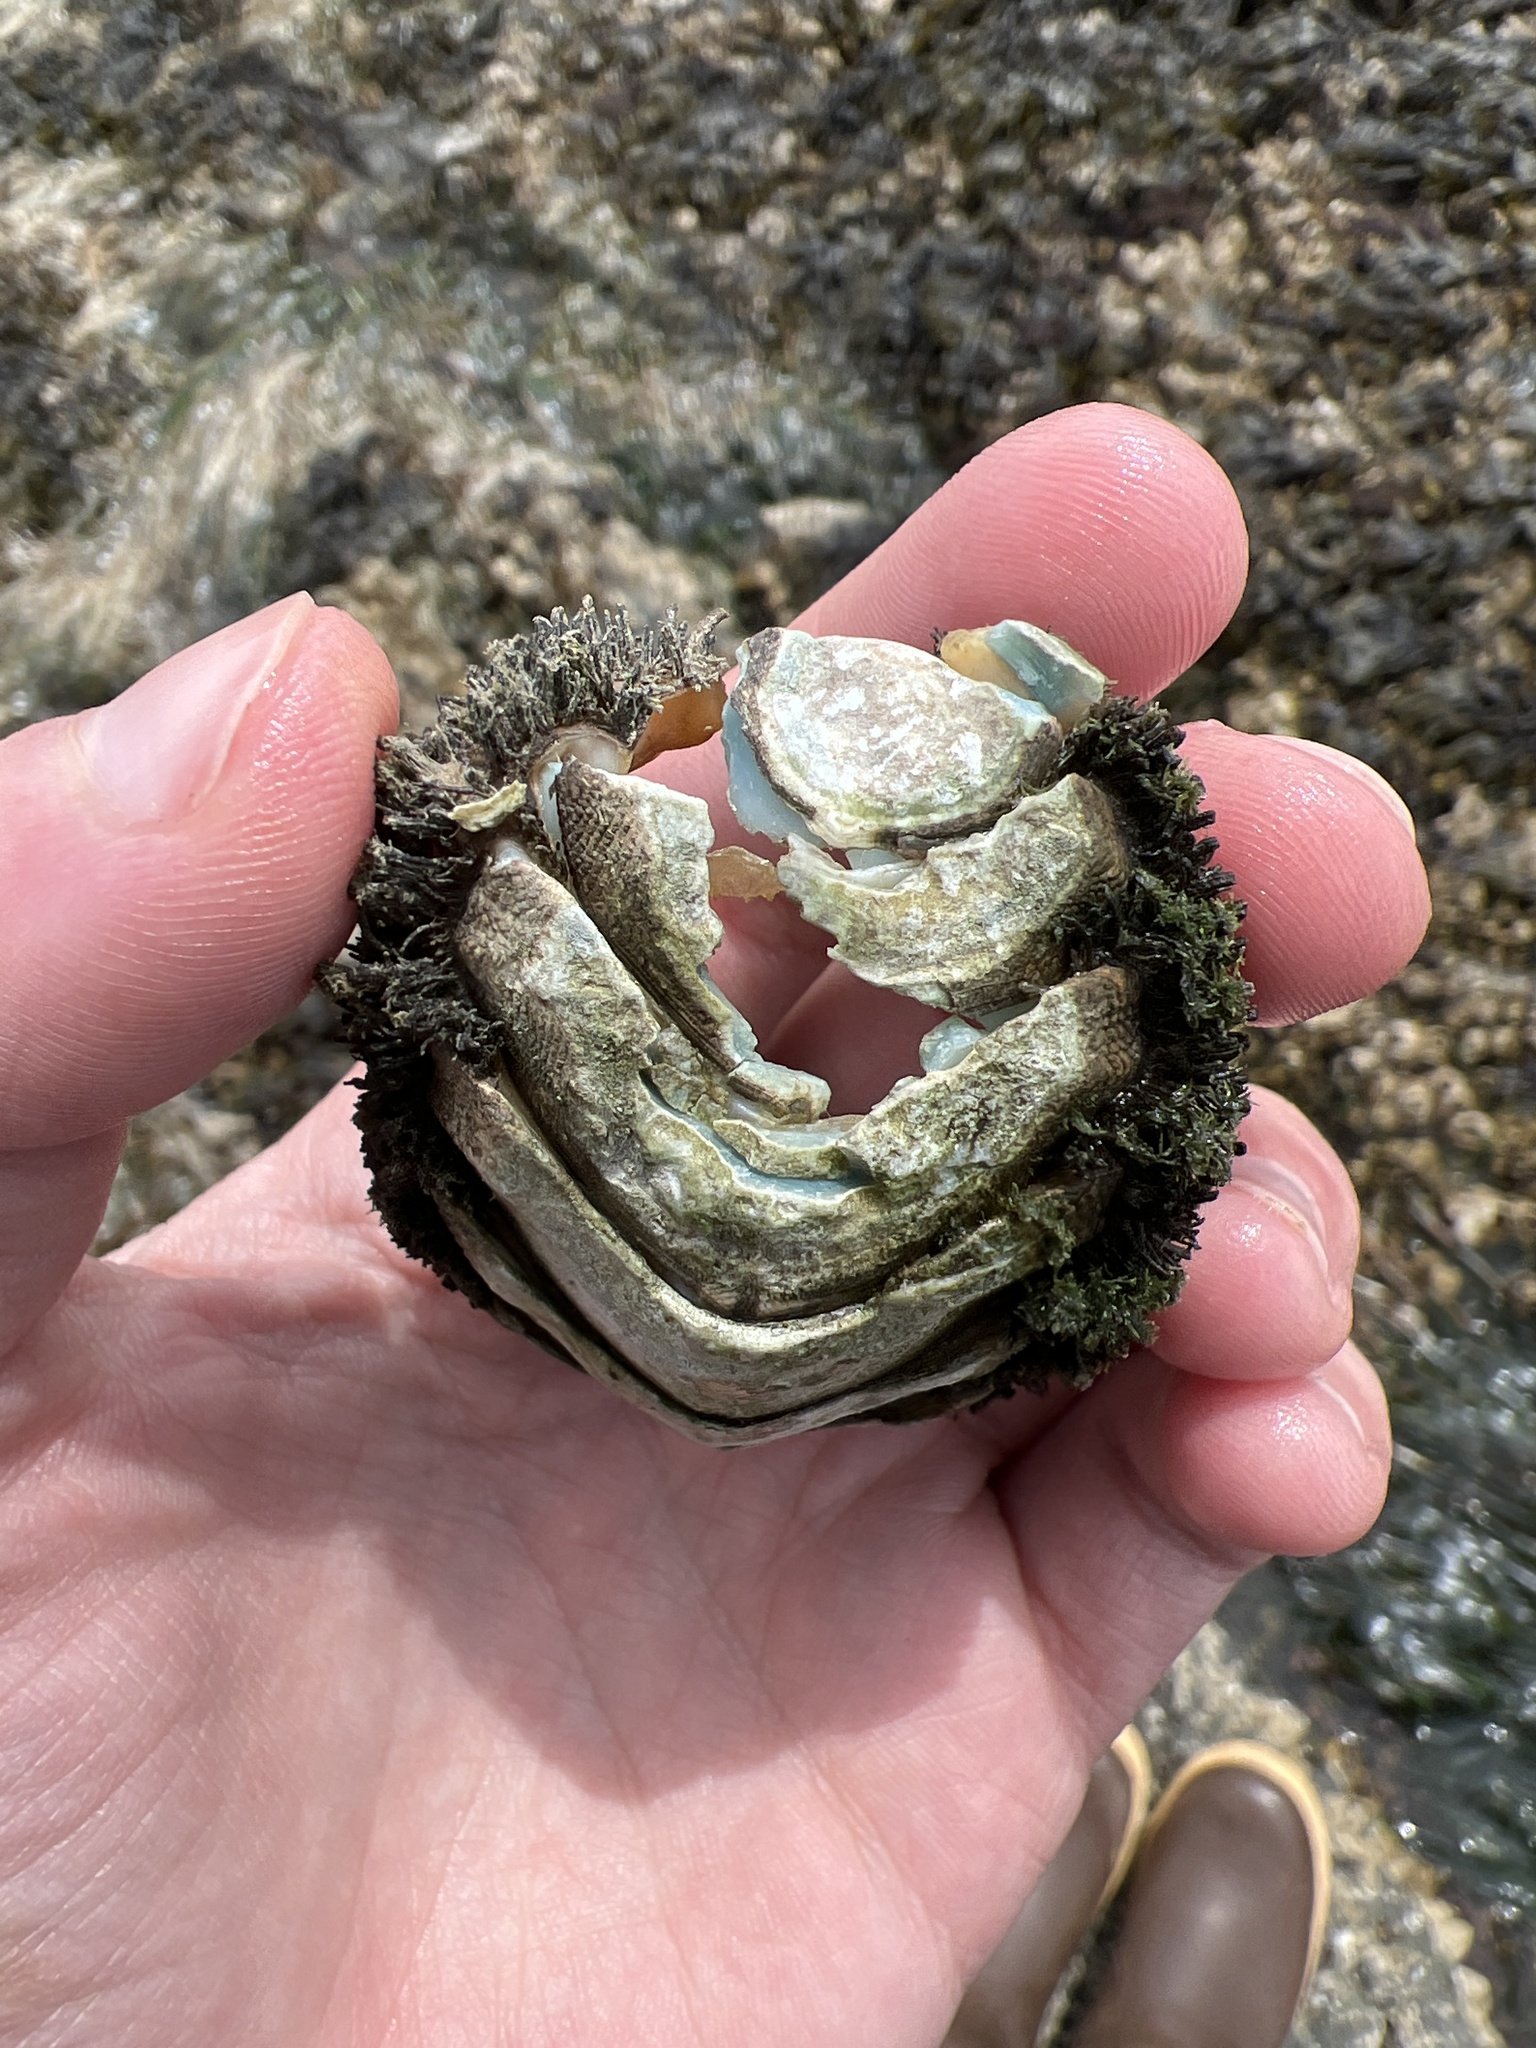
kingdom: Animalia
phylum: Mollusca
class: Polyplacophora
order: Chitonida
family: Mopaliidae
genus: Mopalia
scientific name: Mopalia muscosa
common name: Mossy chiton
